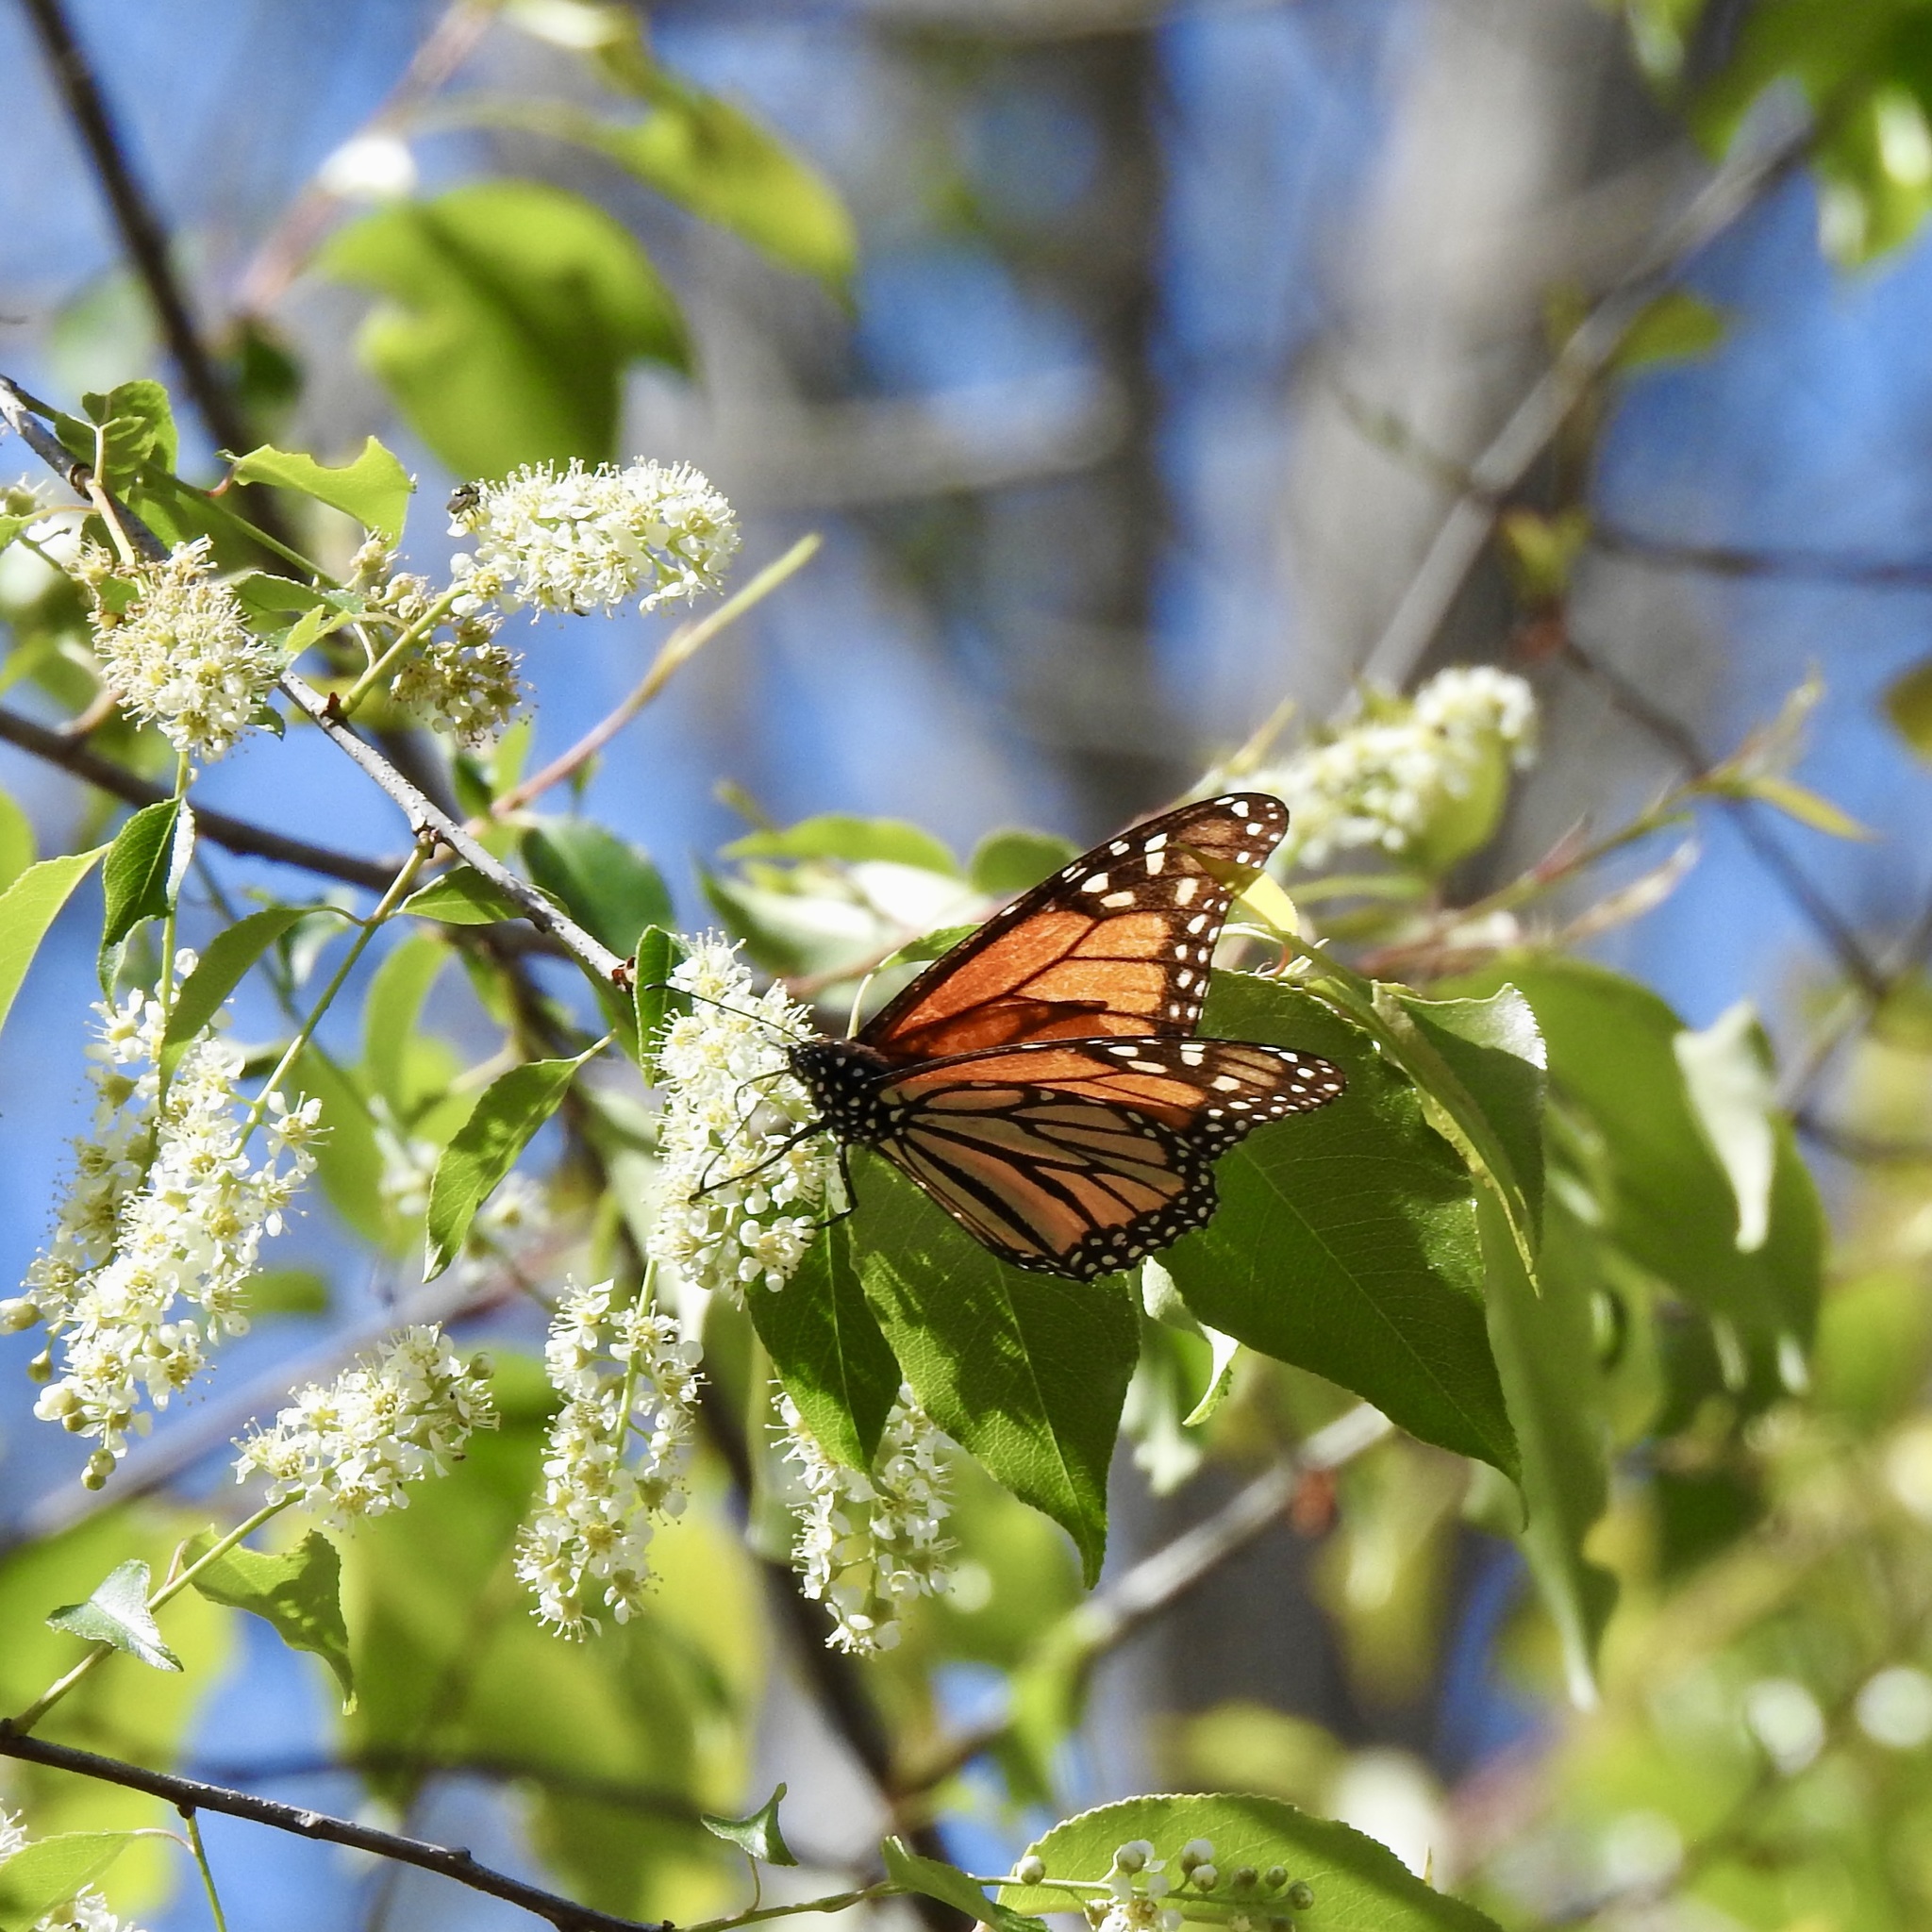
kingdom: Animalia
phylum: Arthropoda
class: Insecta
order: Lepidoptera
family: Nymphalidae
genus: Danaus
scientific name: Danaus plexippus
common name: Monarch
